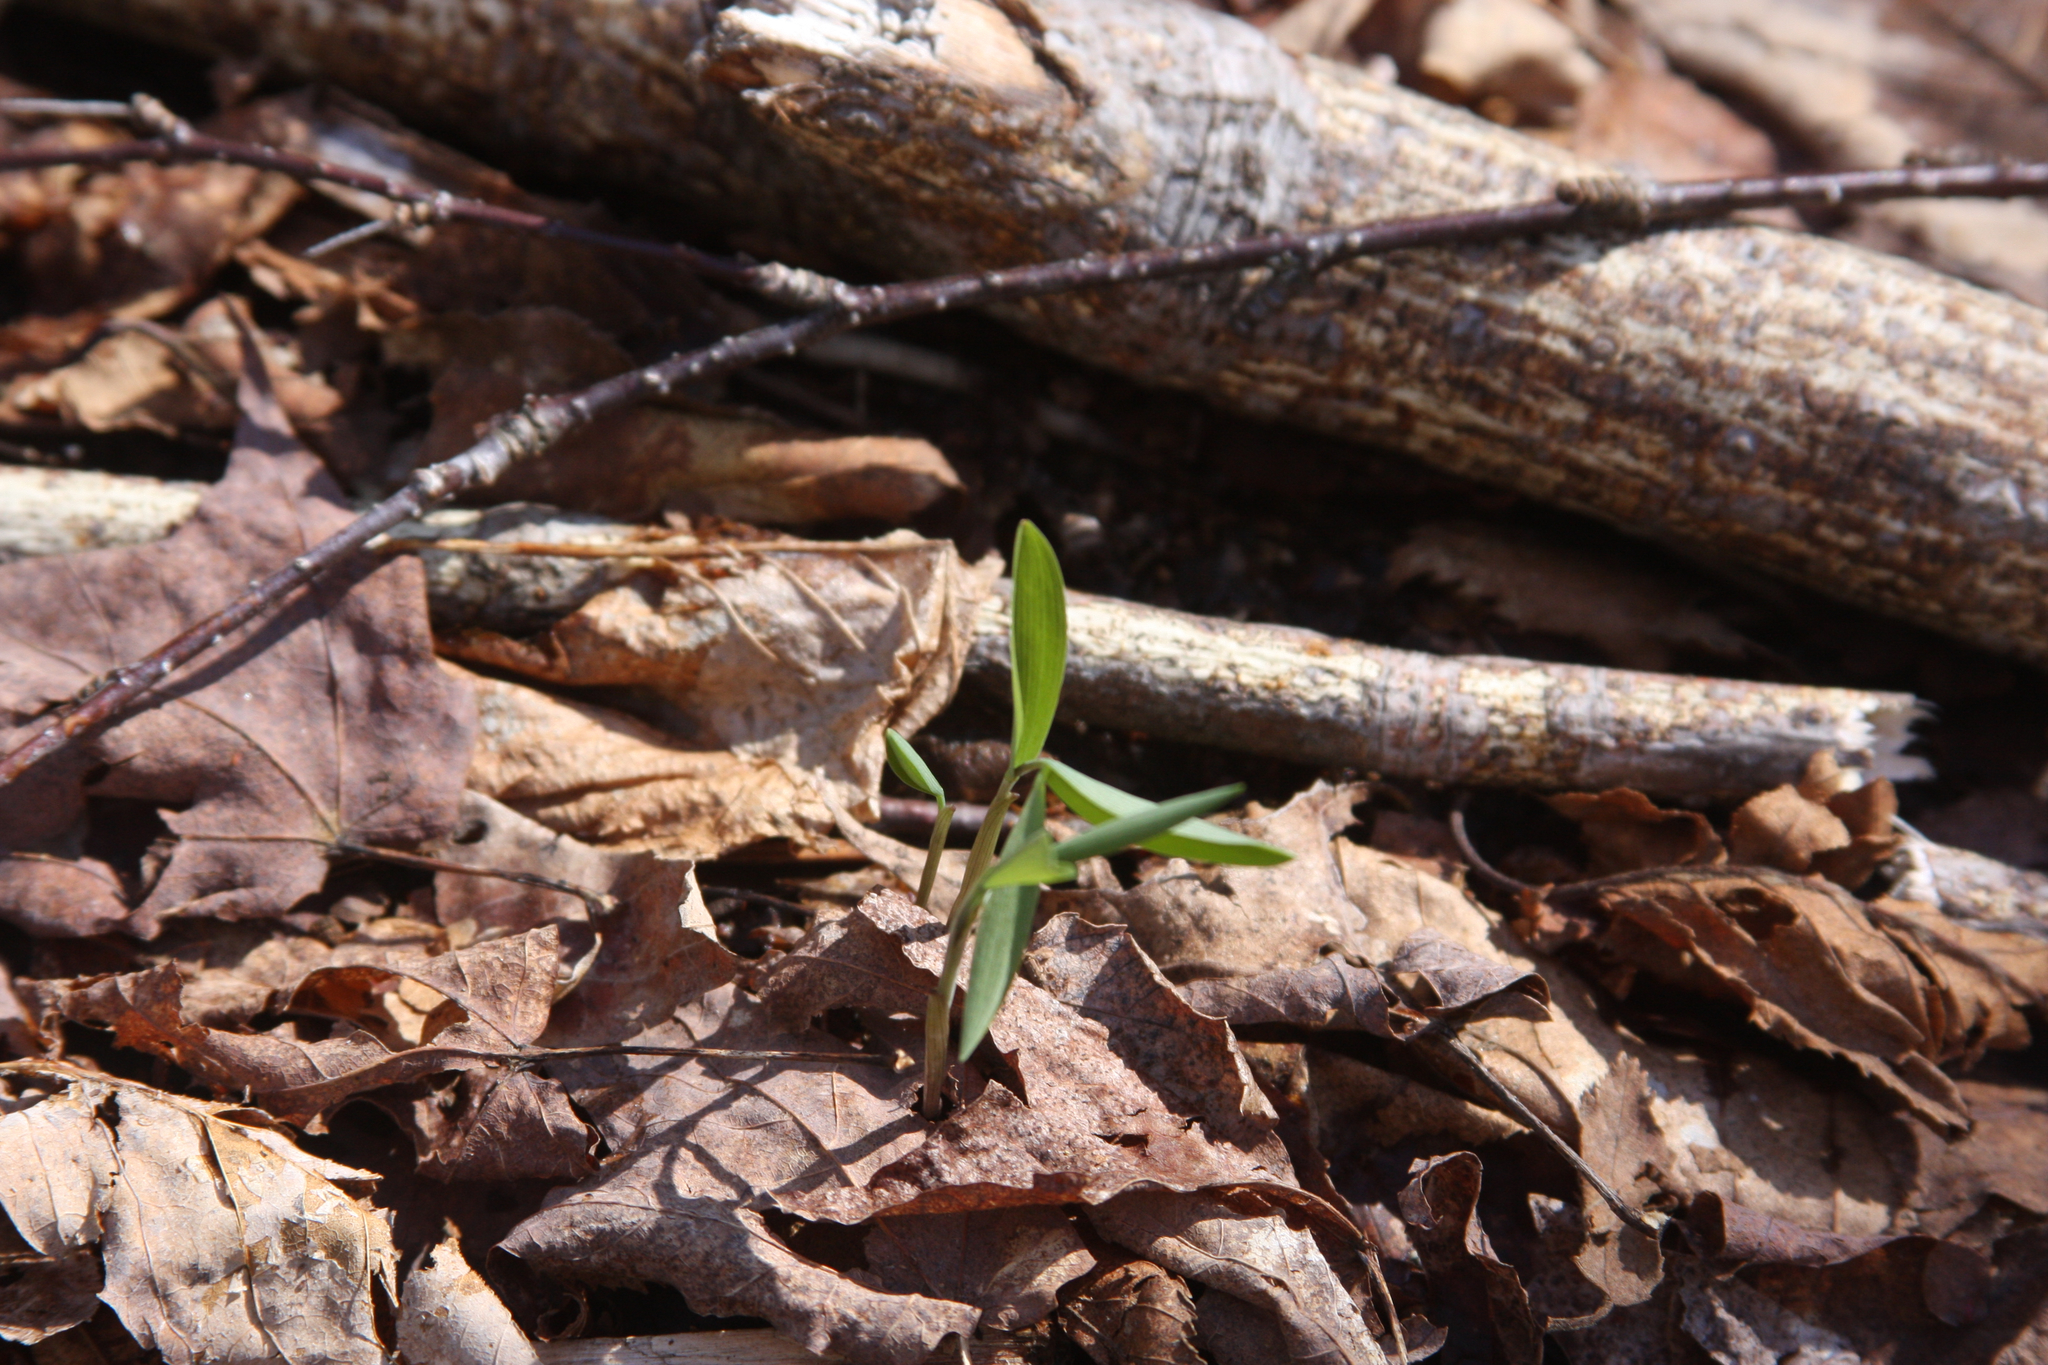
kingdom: Plantae
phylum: Tracheophyta
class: Liliopsida
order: Liliales
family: Colchicaceae
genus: Uvularia
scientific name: Uvularia sessilifolia
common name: Straw-lily
